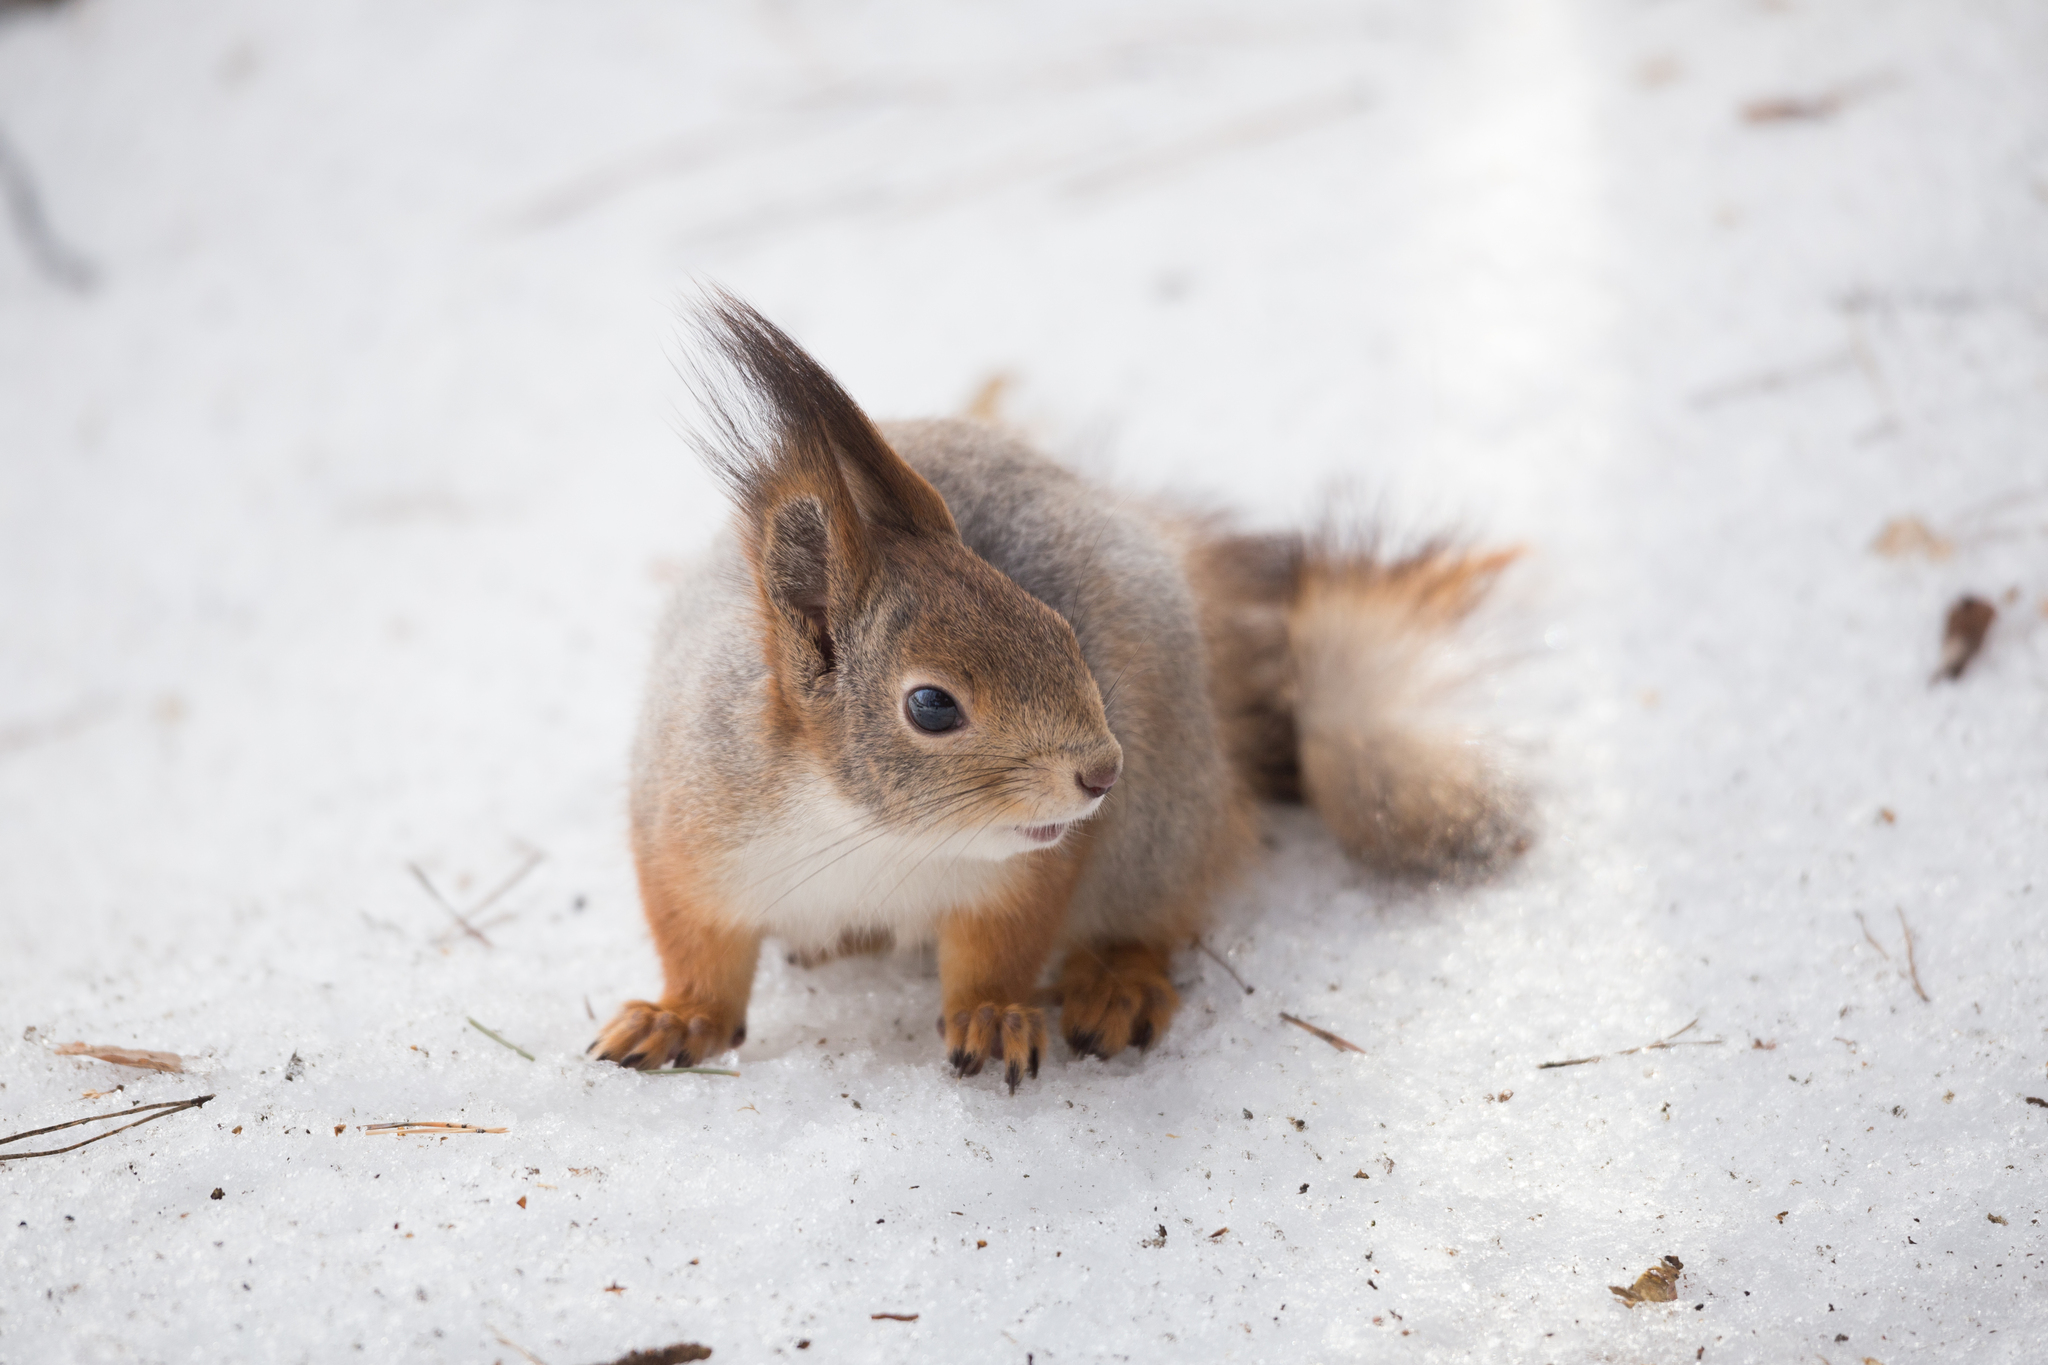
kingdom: Animalia
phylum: Chordata
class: Mammalia
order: Rodentia
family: Sciuridae
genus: Sciurus
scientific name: Sciurus vulgaris
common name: Eurasian red squirrel
